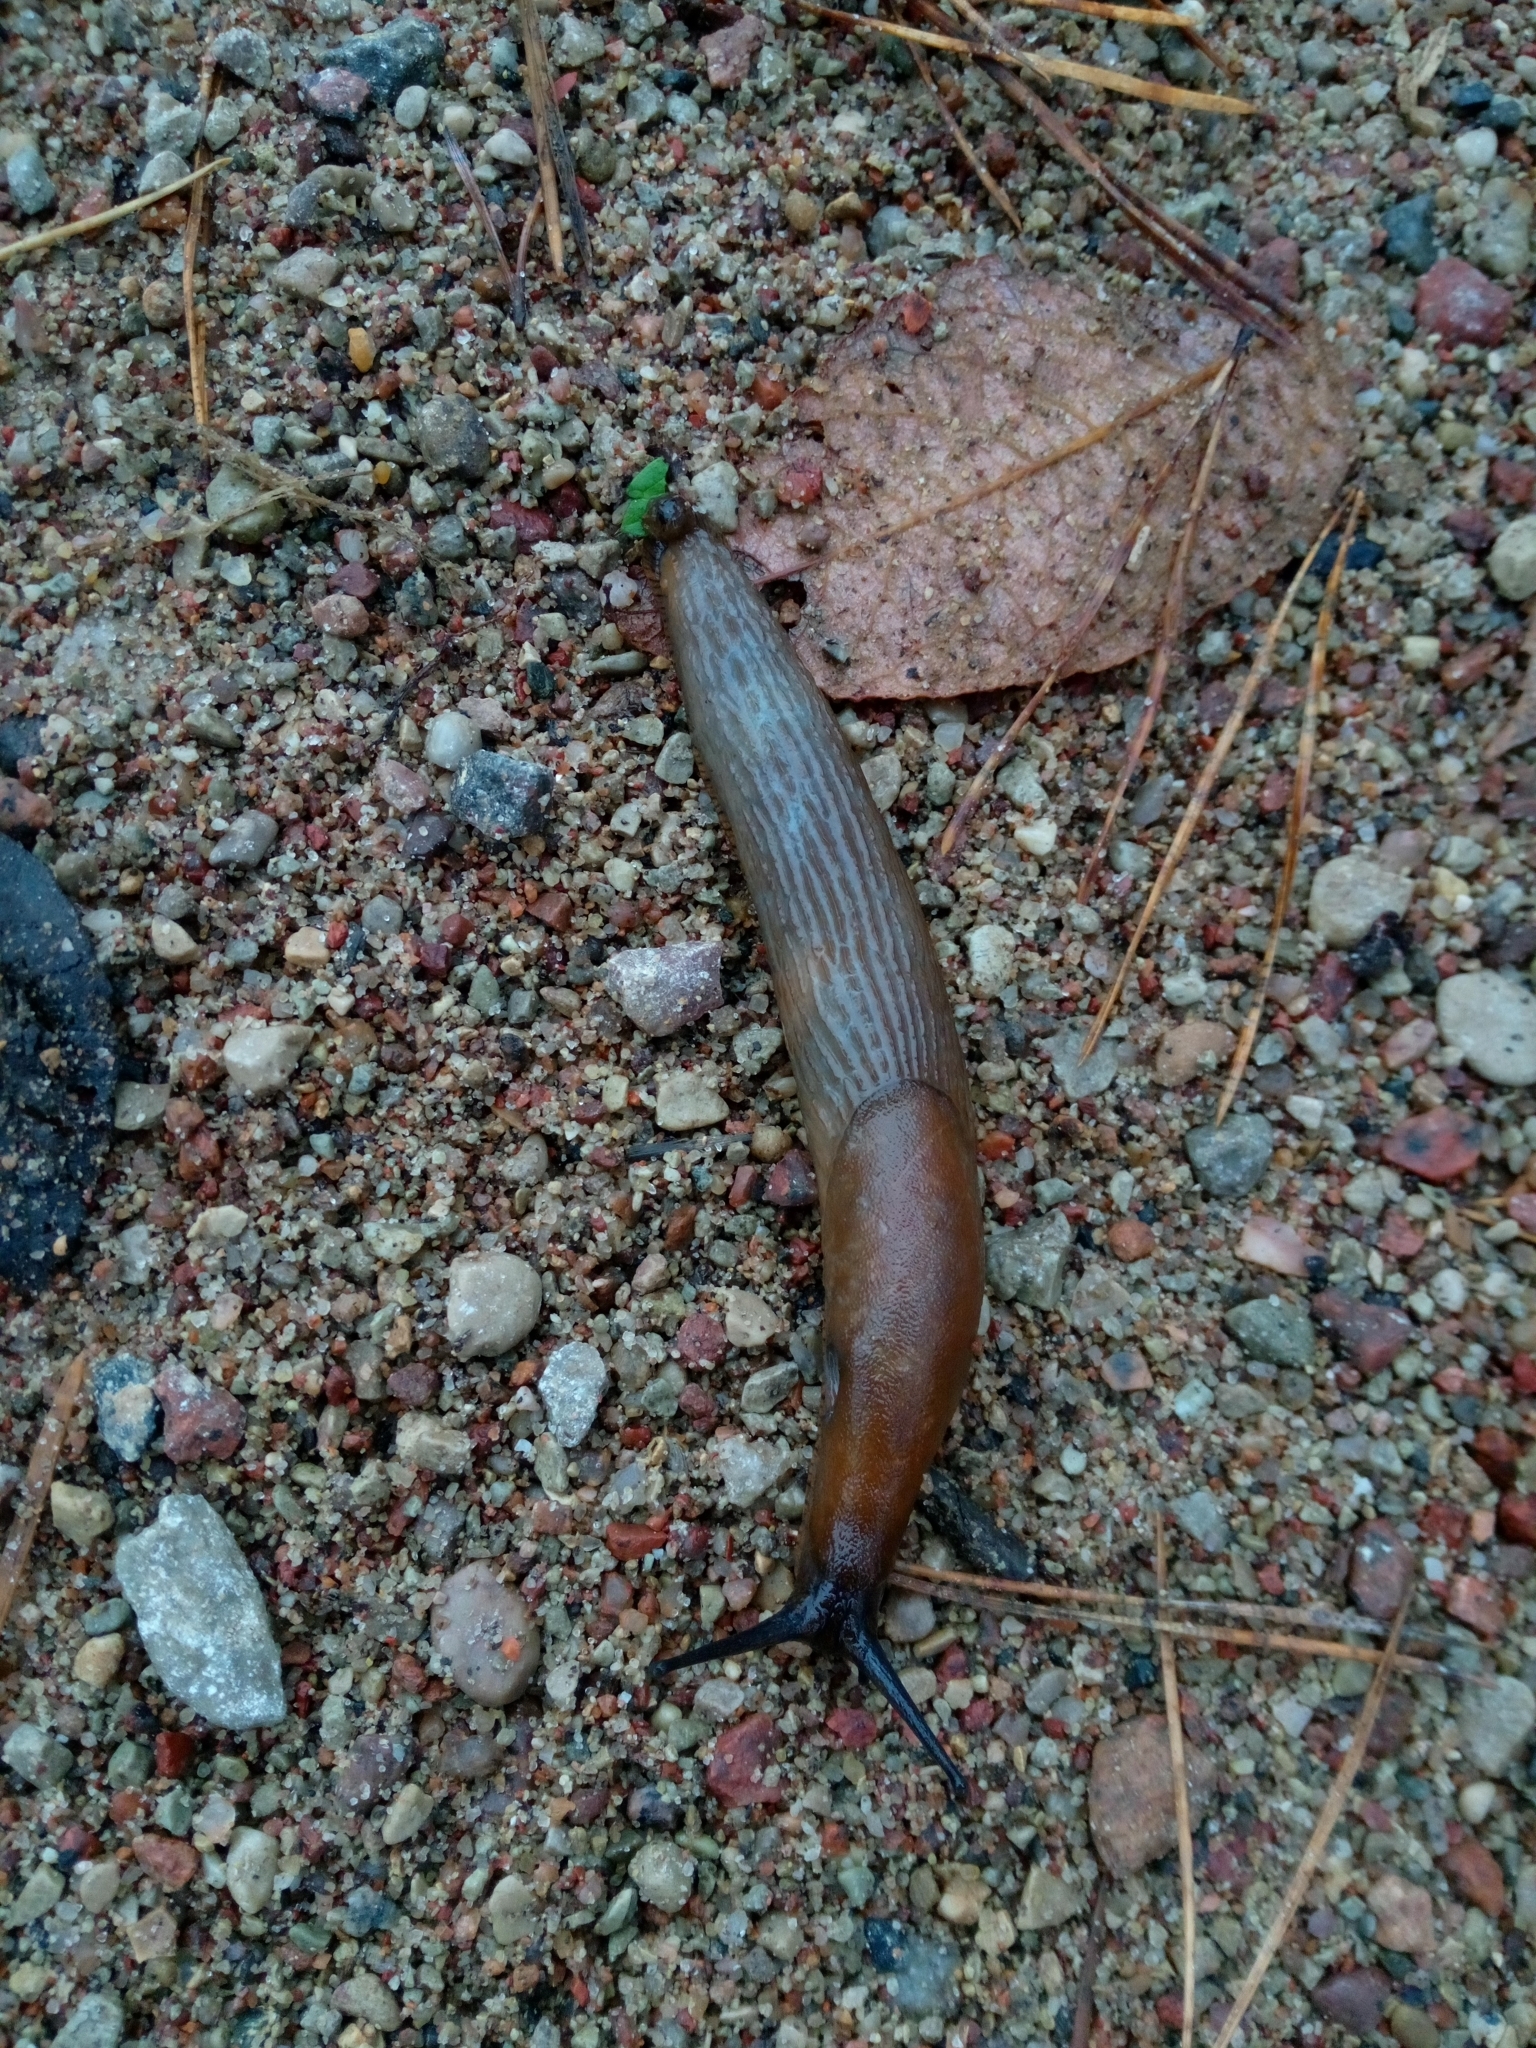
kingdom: Animalia
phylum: Mollusca
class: Gastropoda
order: Stylommatophora
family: Arionidae
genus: Arion
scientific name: Arion rufus
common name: Chocolate arion
